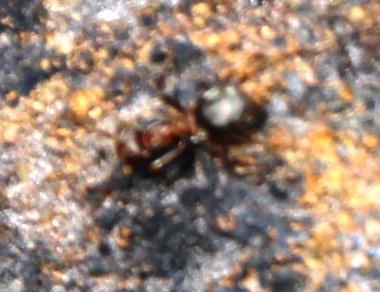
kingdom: Animalia
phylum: Arthropoda
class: Insecta
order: Hymenoptera
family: Formicidae
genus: Anoplolepis
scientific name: Anoplolepis steingroeveri
